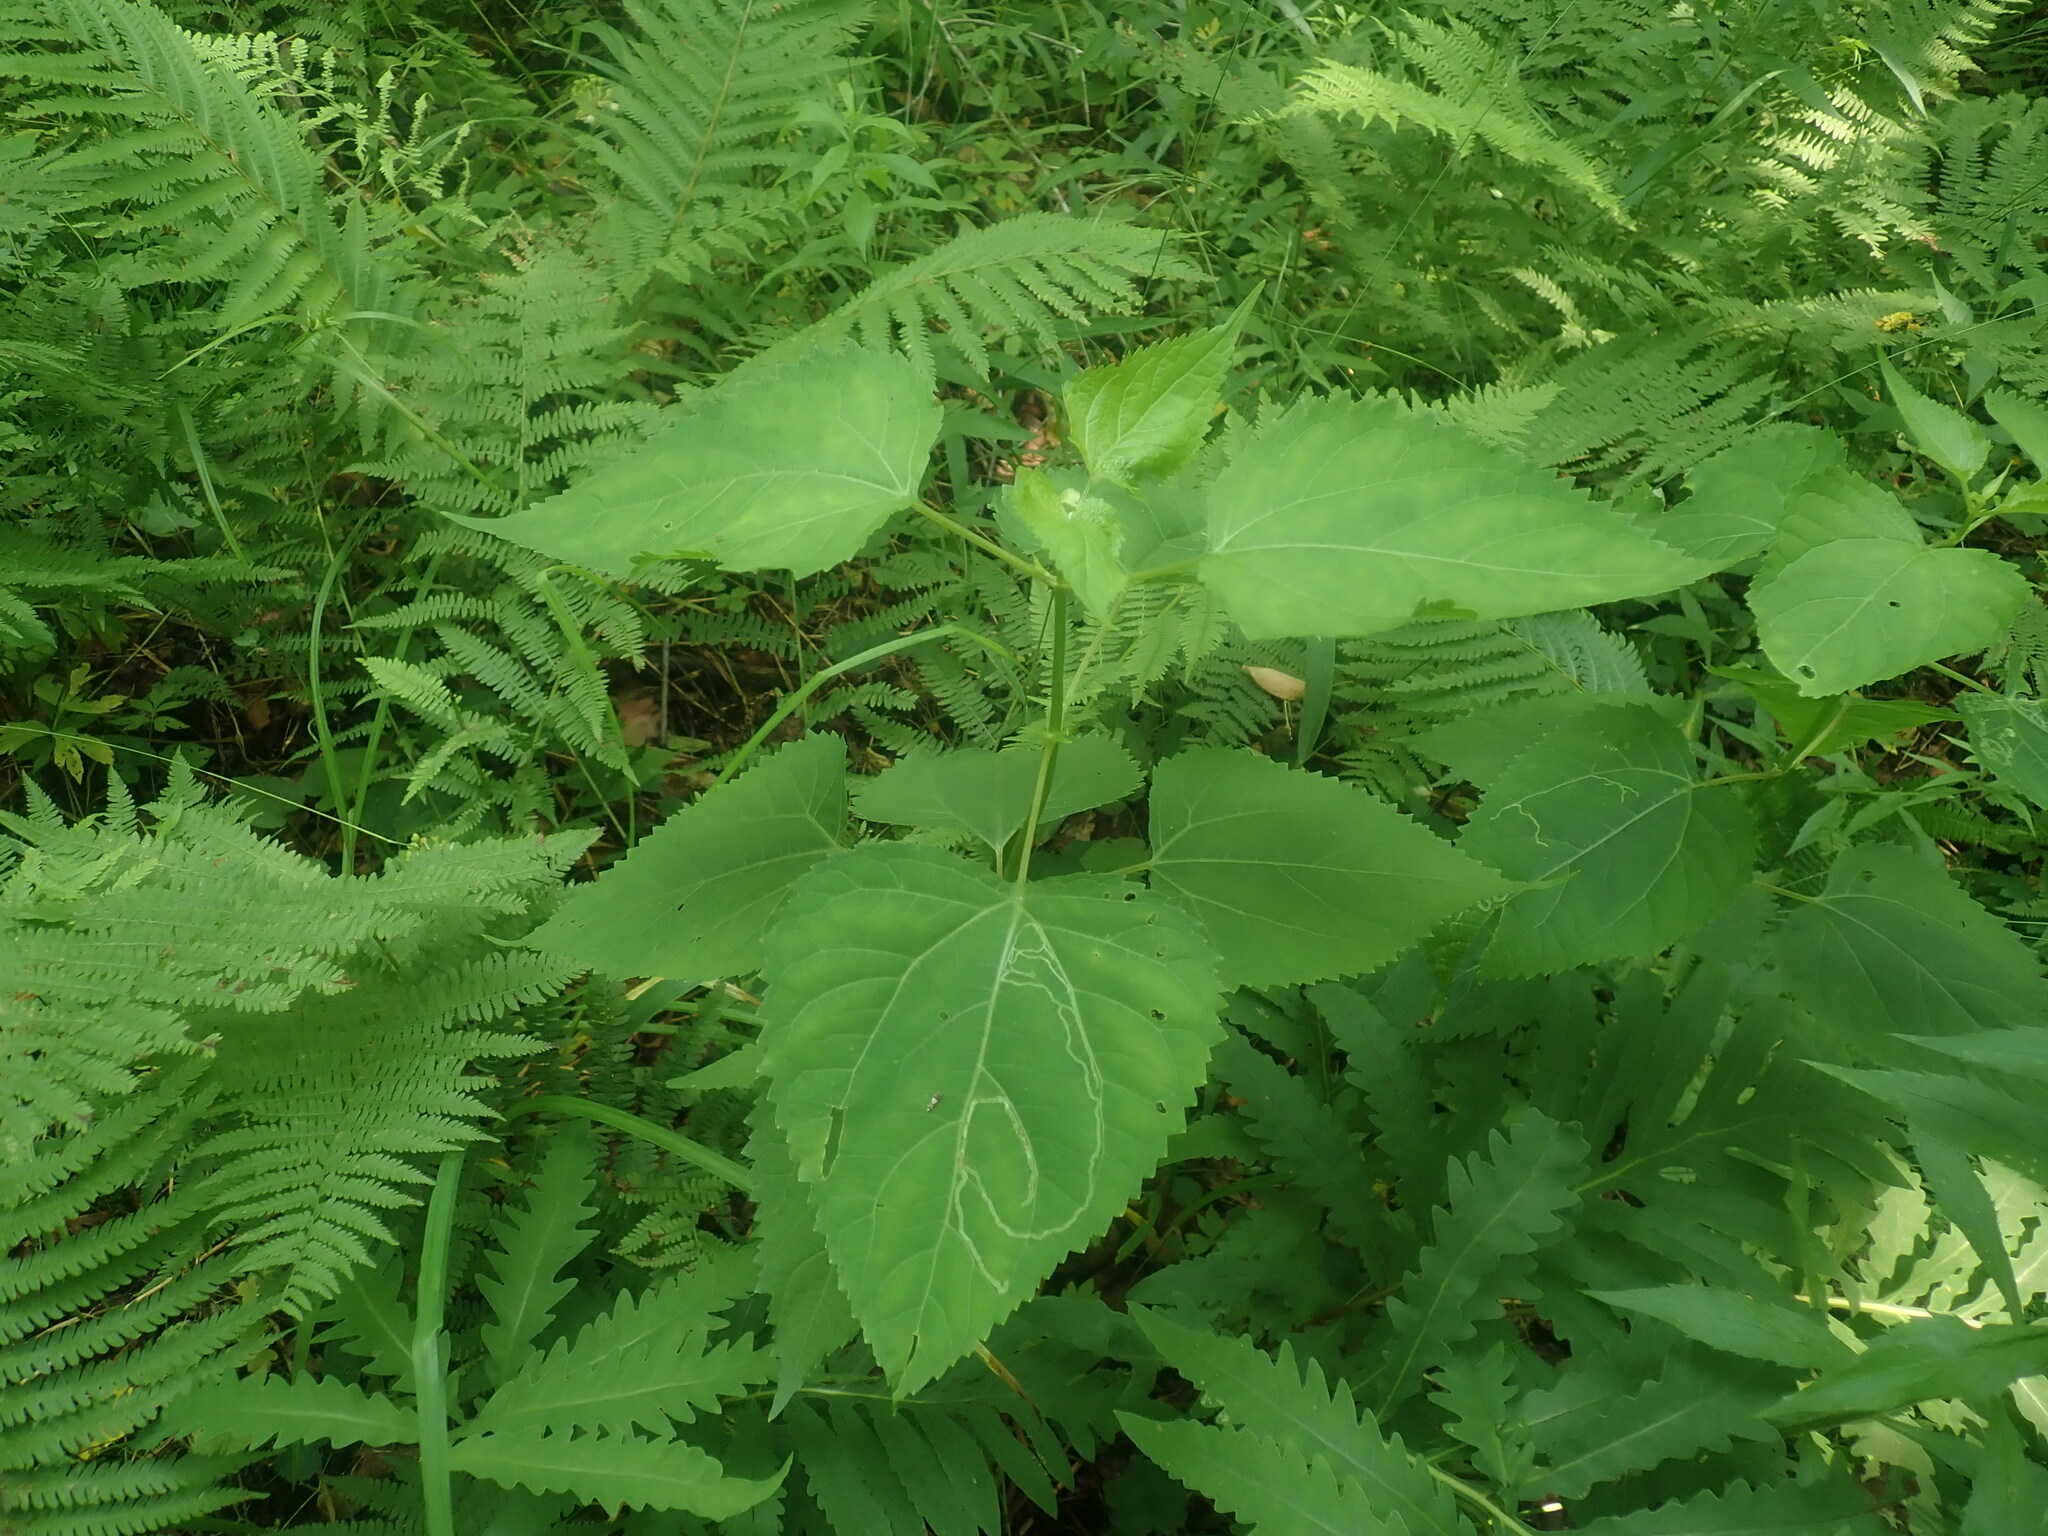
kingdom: Plantae
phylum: Tracheophyta
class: Magnoliopsida
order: Asterales
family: Asteraceae
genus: Ageratina
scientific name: Ageratina altissima
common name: White snakeroot
